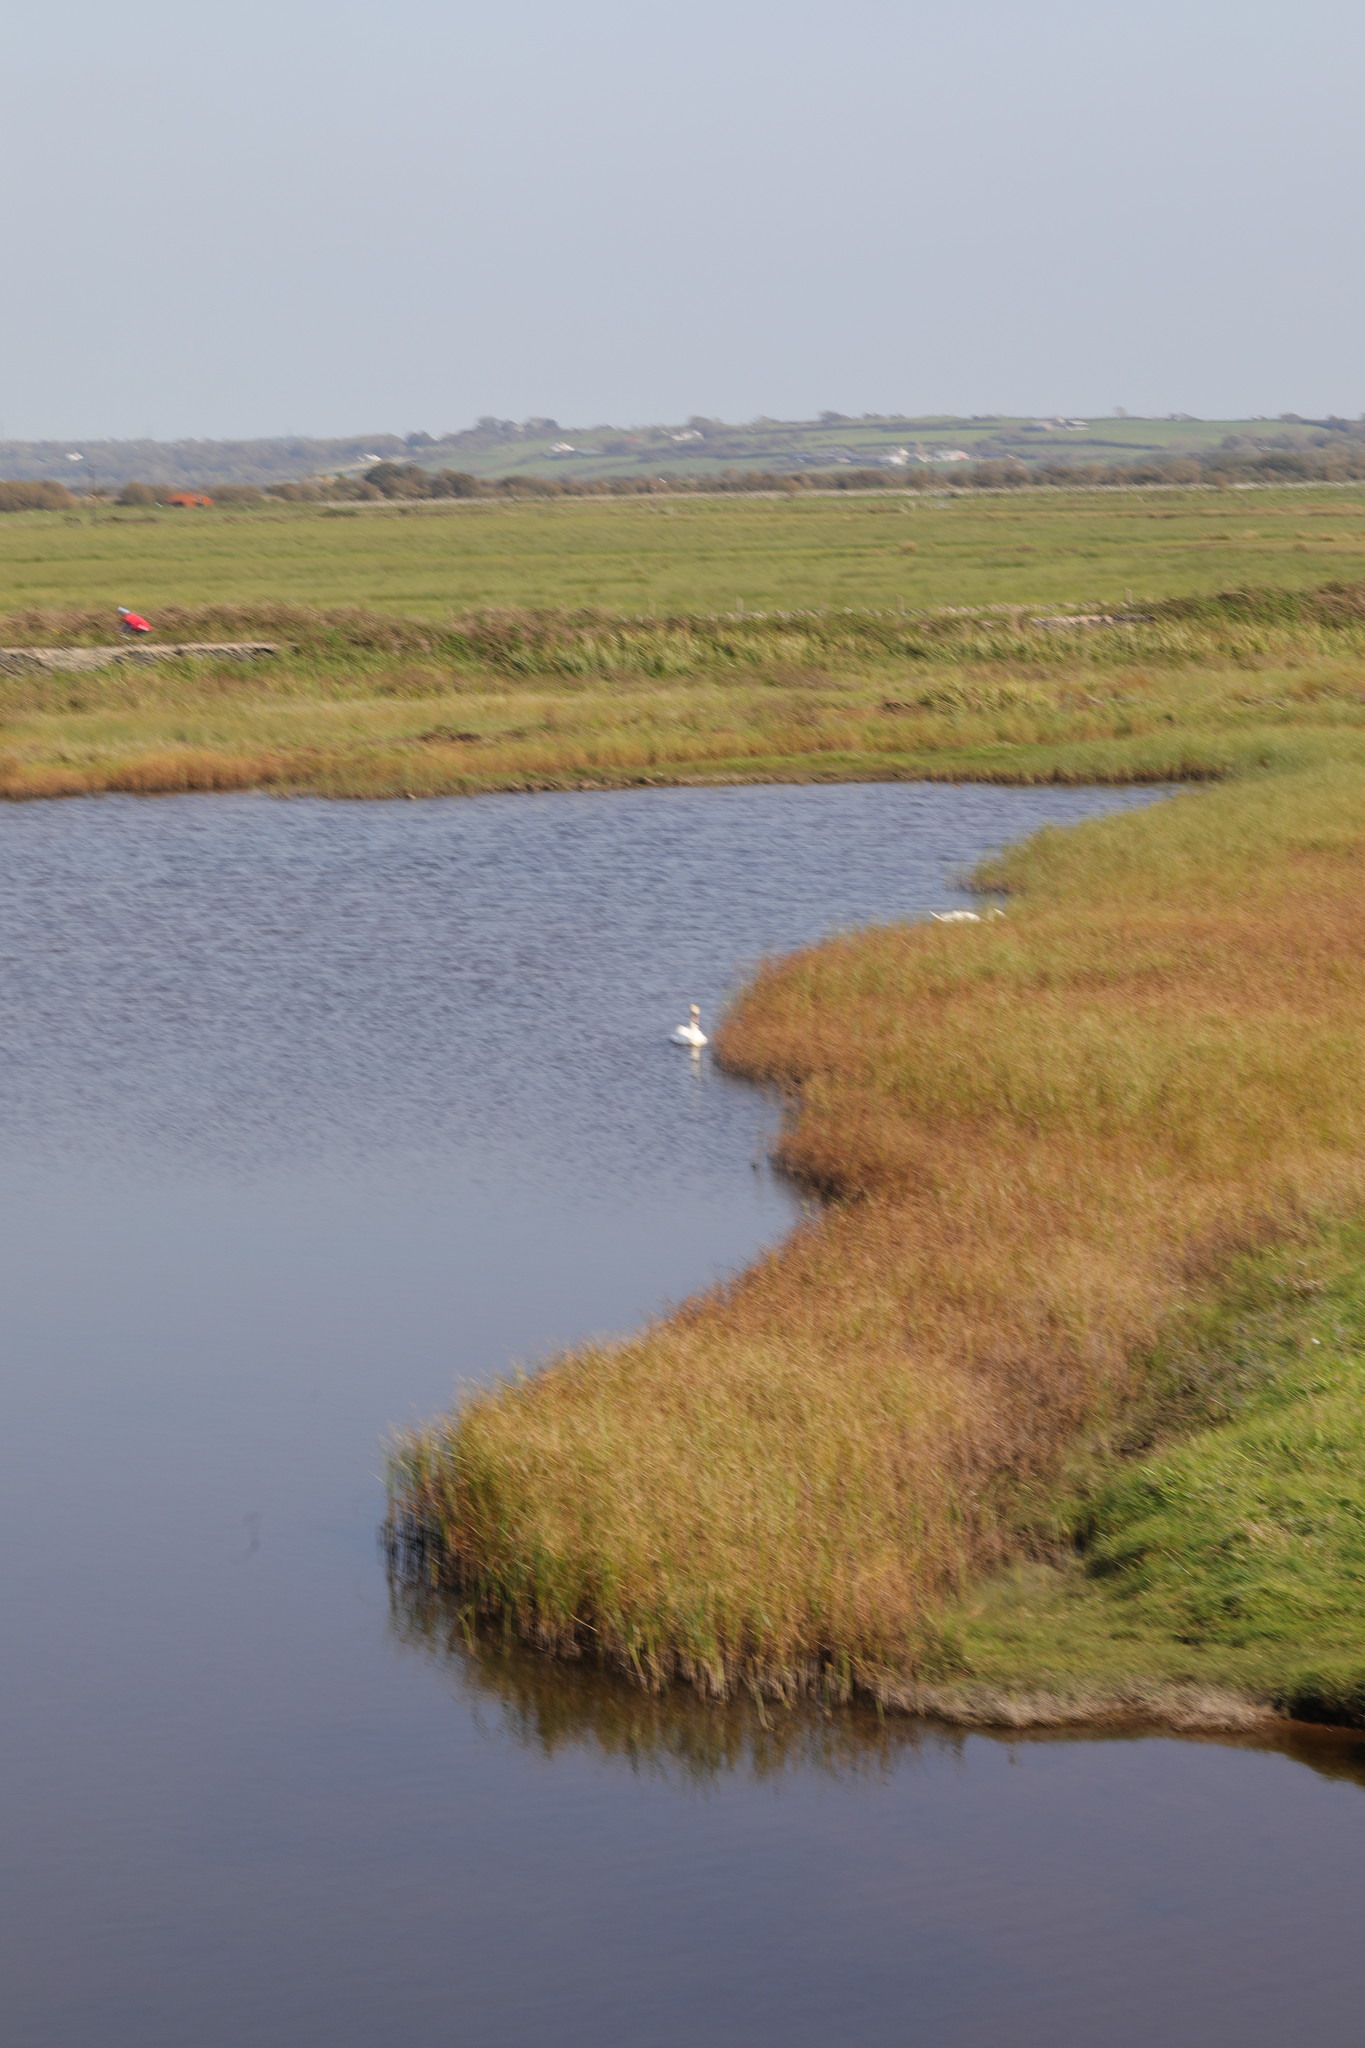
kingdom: Animalia
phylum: Chordata
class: Aves
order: Anseriformes
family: Anatidae
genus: Cygnus
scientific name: Cygnus olor
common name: Mute swan
